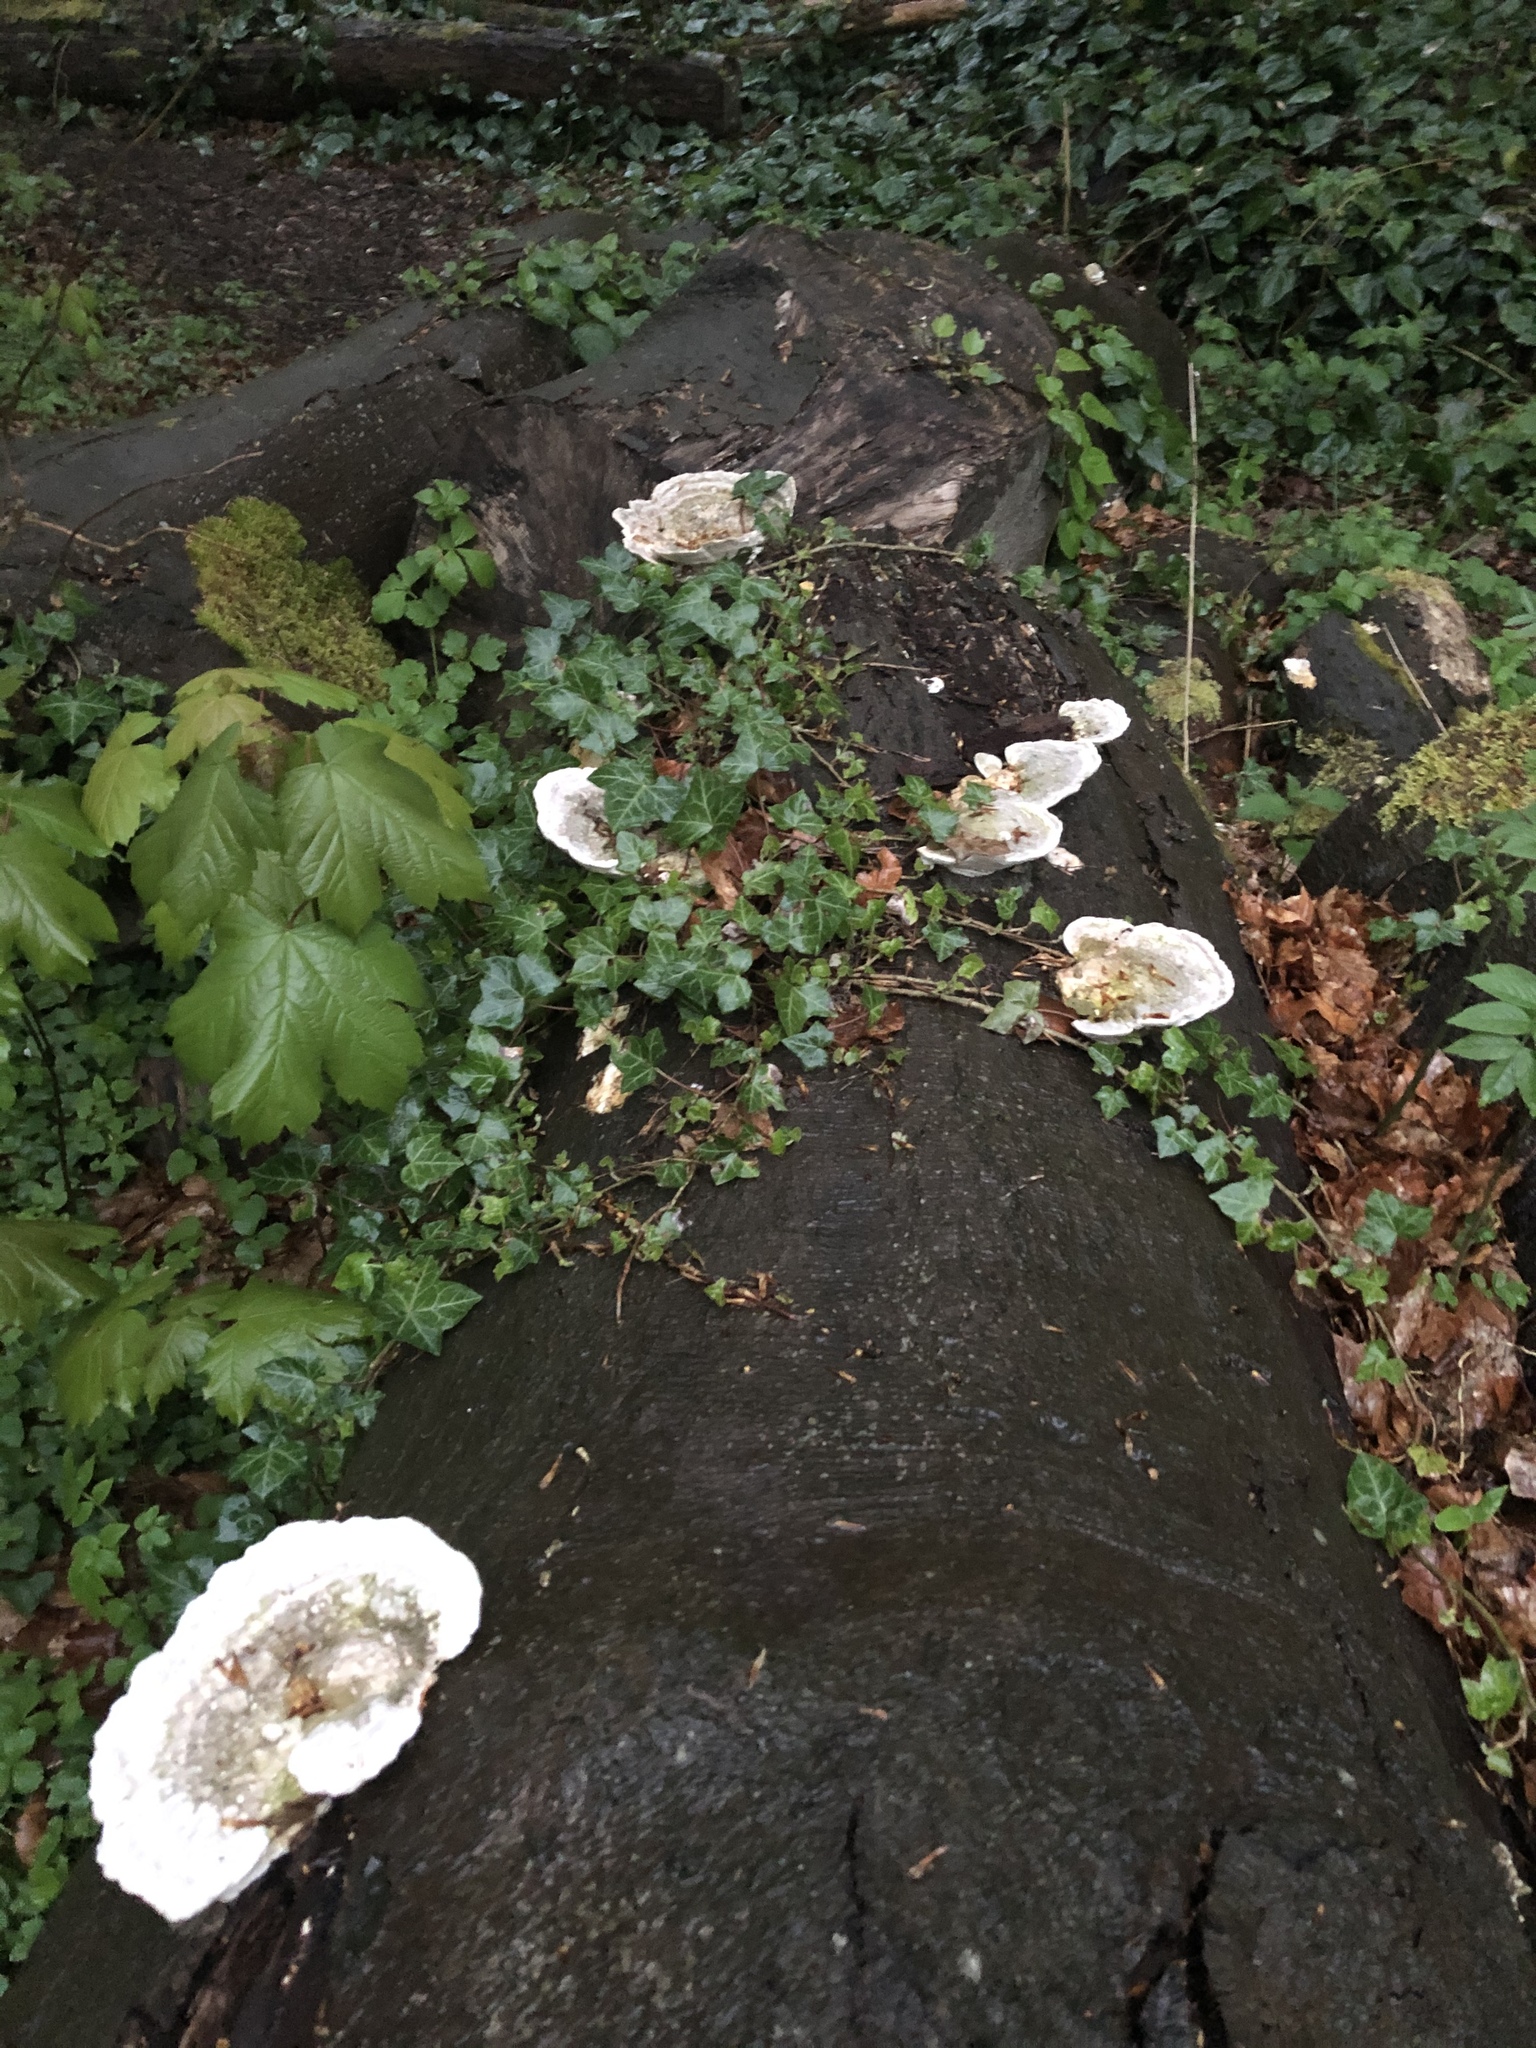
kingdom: Fungi
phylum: Basidiomycota
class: Agaricomycetes
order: Polyporales
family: Polyporaceae
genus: Trametes
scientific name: Trametes gibbosa
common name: Lumpy bracket
